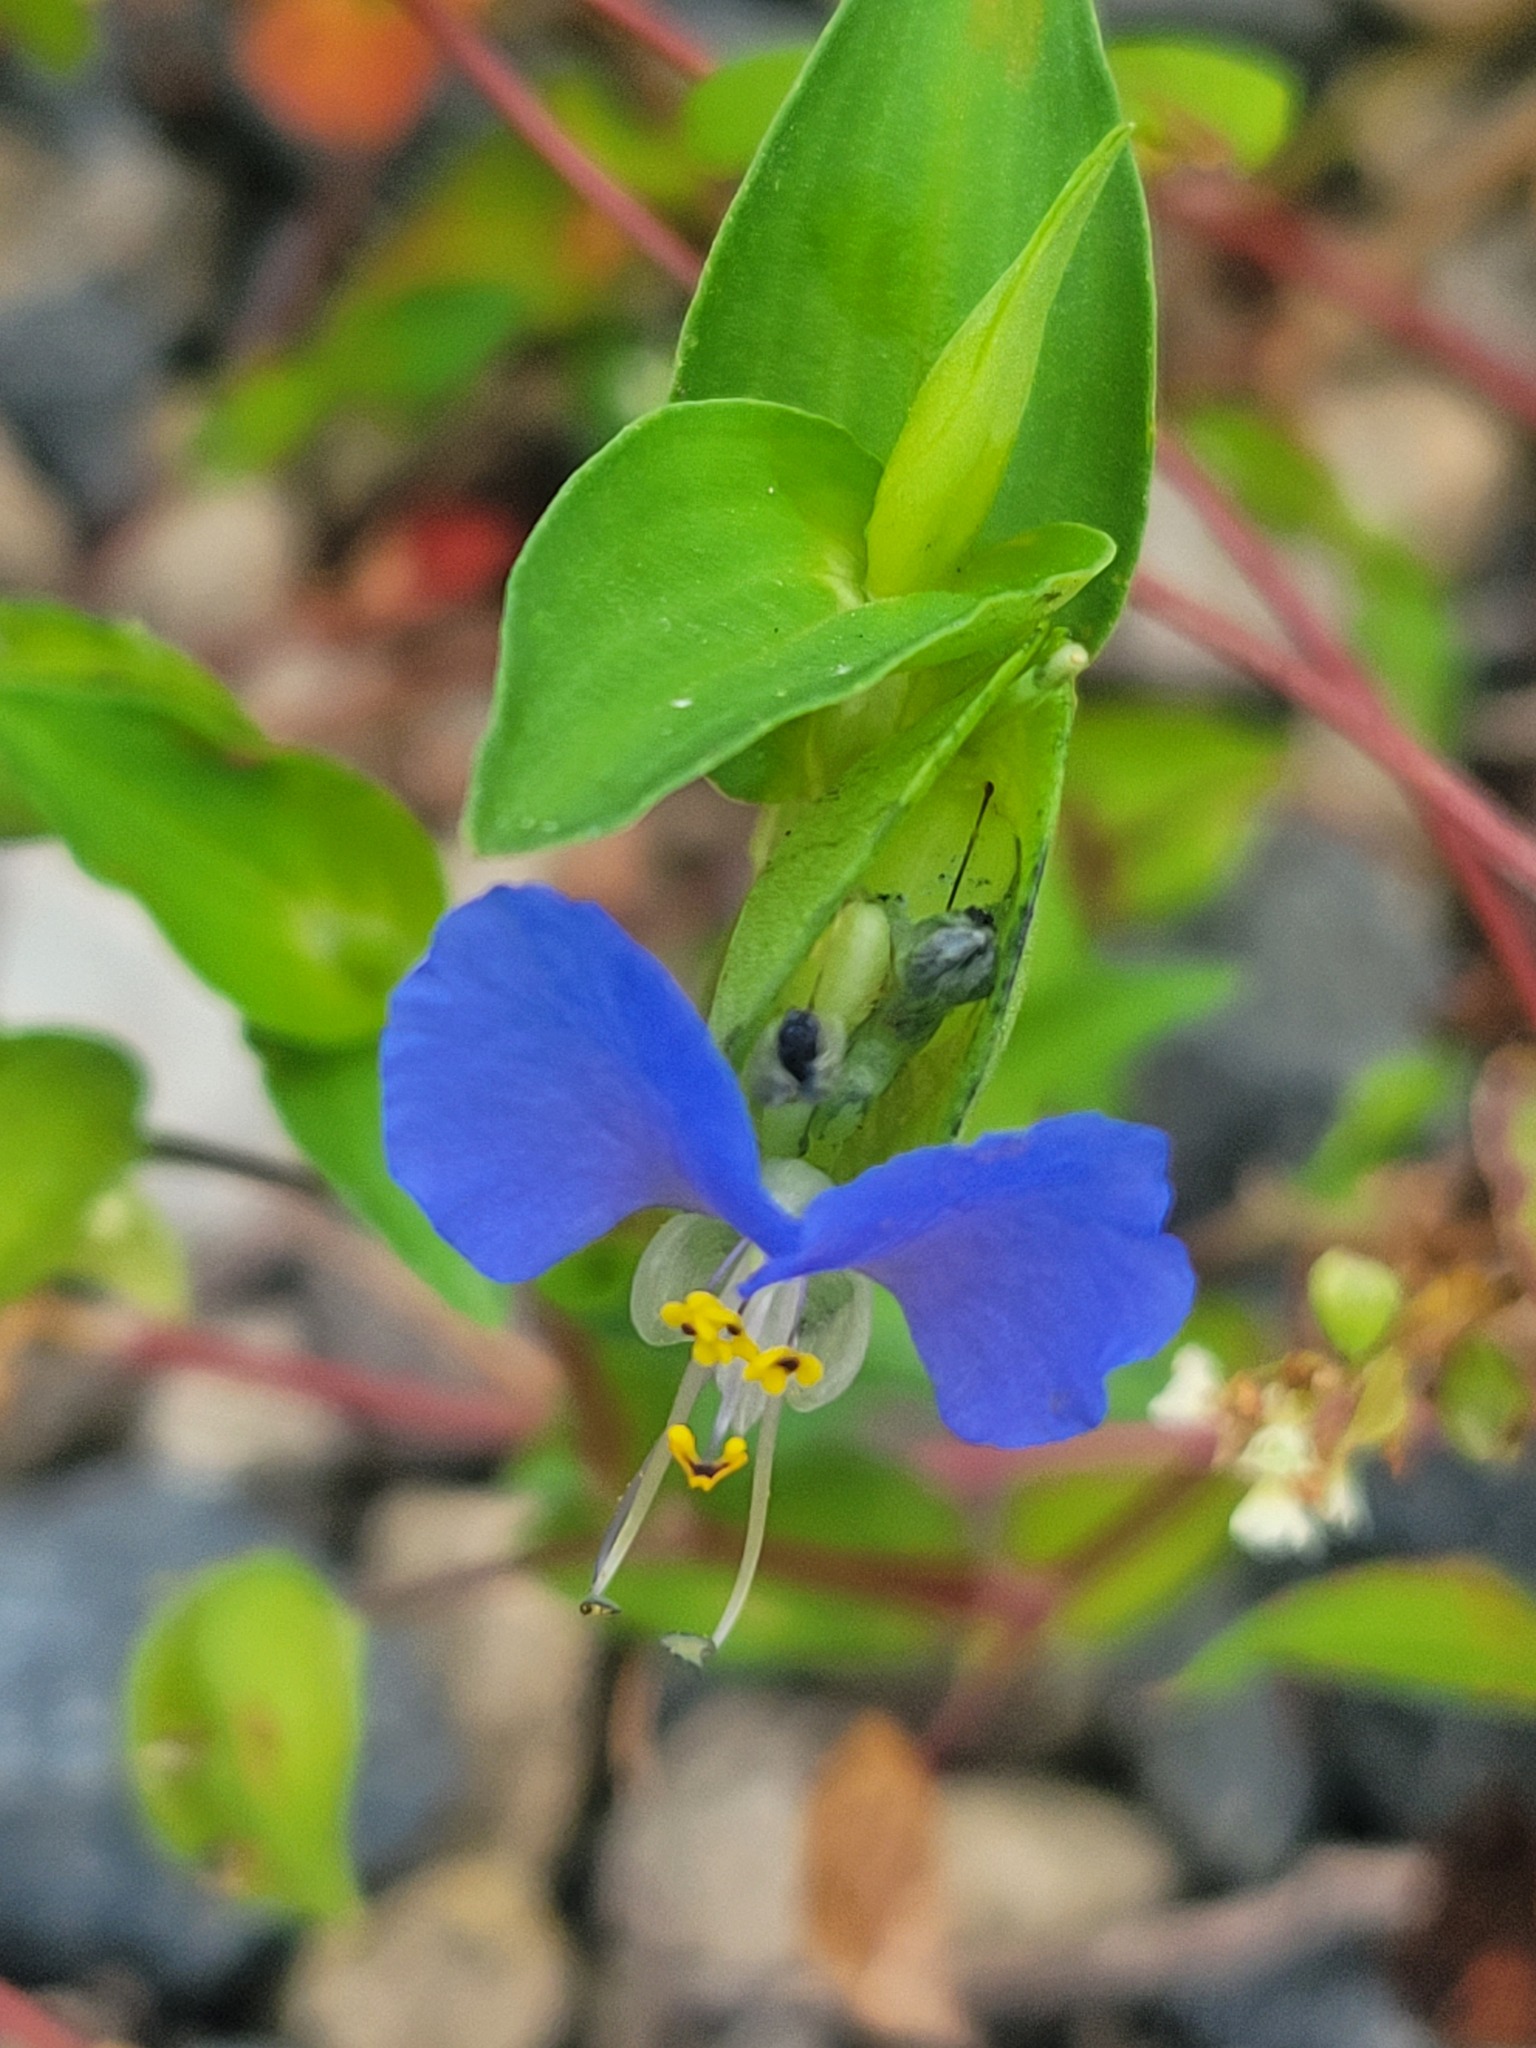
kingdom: Plantae
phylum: Tracheophyta
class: Liliopsida
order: Commelinales
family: Commelinaceae
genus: Commelina
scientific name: Commelina communis
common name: Asiatic dayflower
